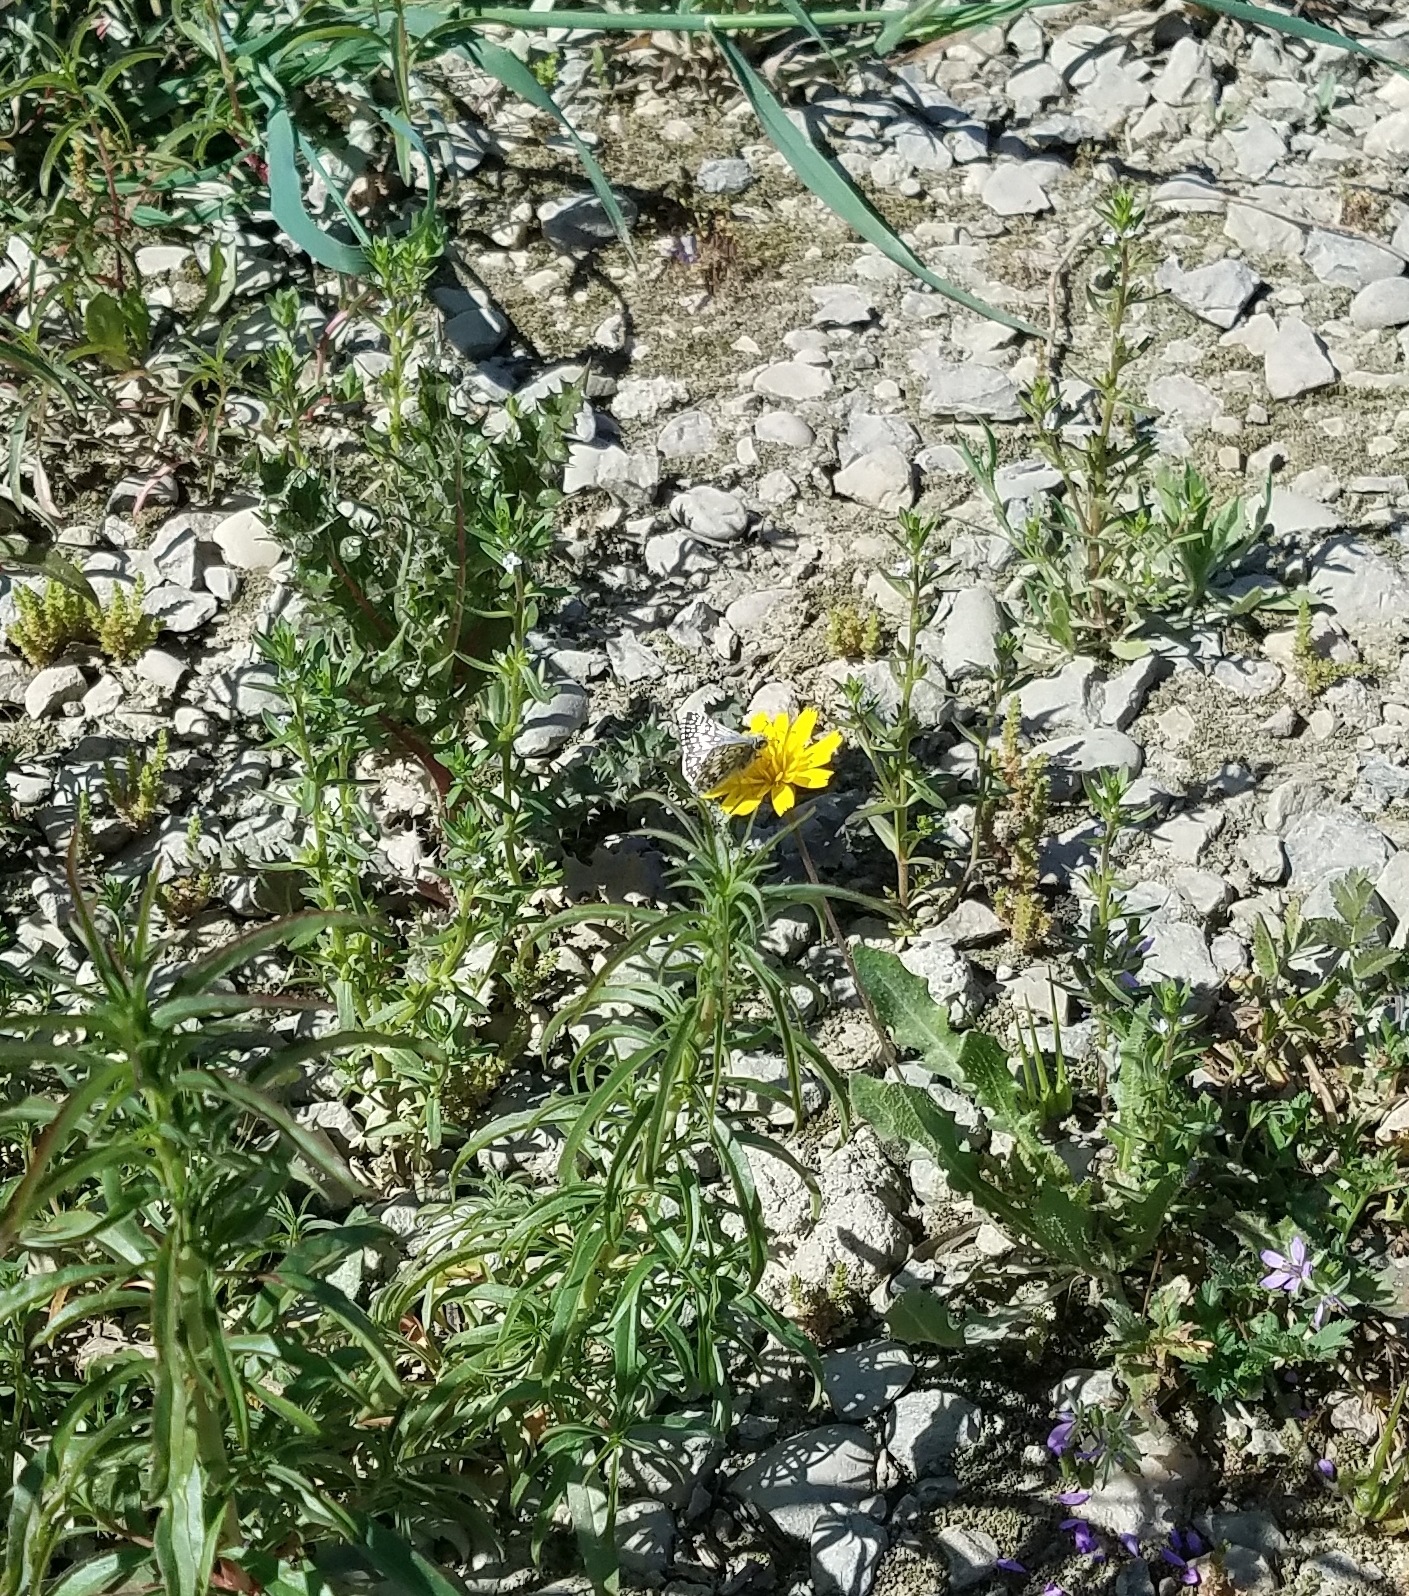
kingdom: Animalia
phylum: Arthropoda
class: Insecta
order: Lepidoptera
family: Hesperiidae
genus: Burnsius
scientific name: Burnsius communis
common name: Common checkered-skipper
